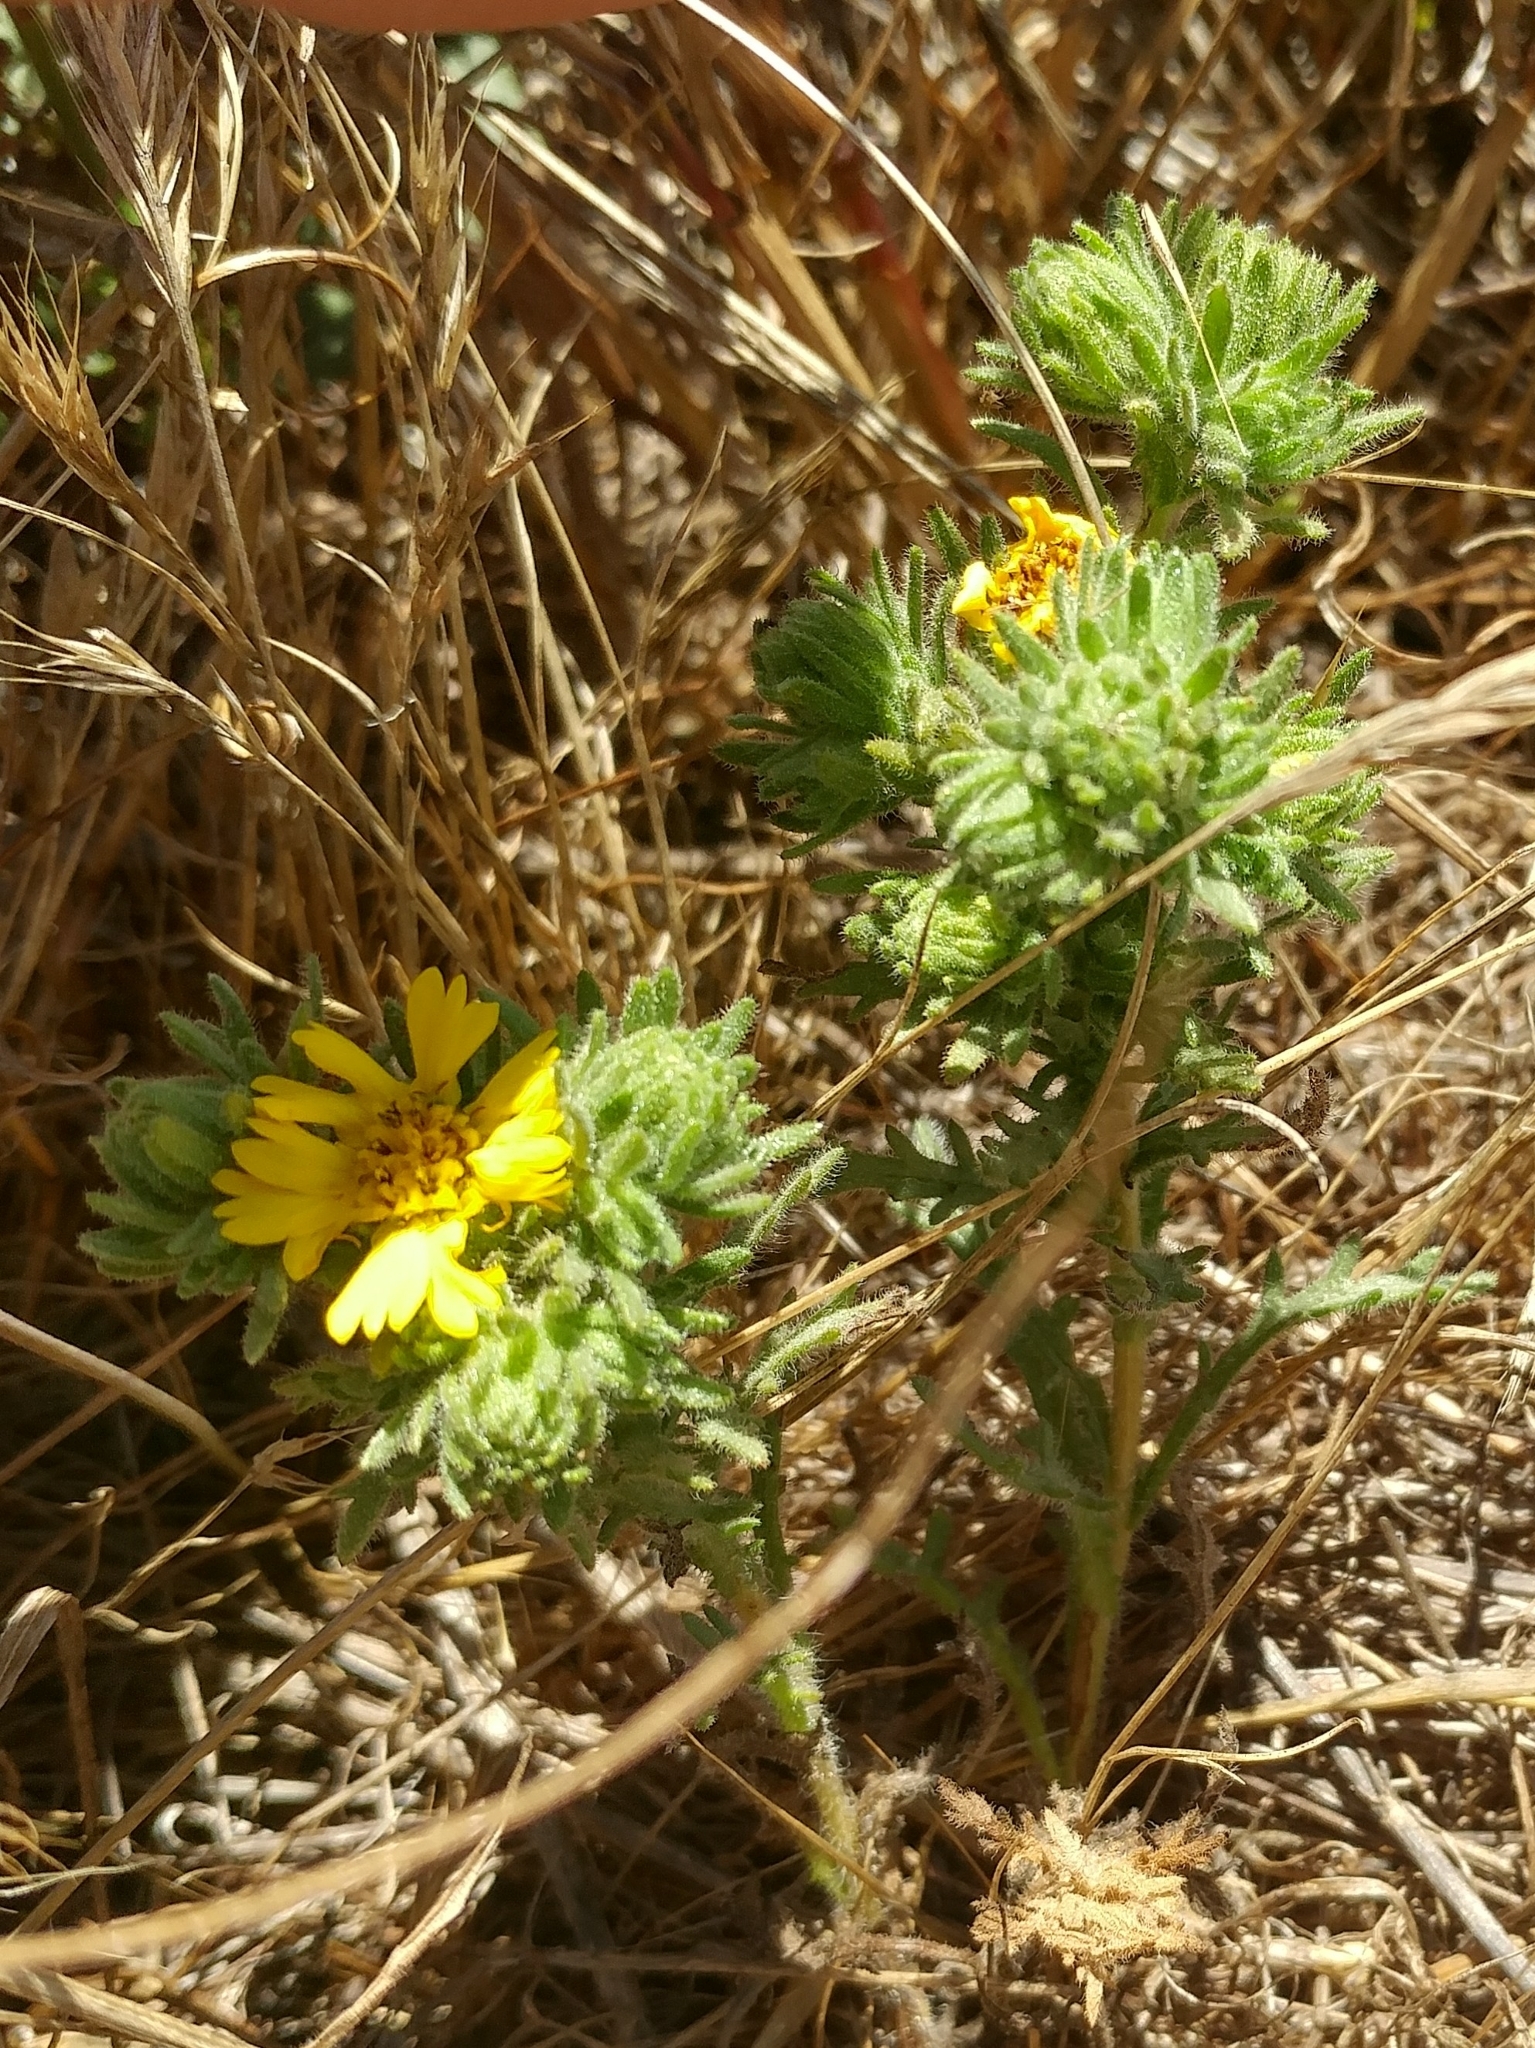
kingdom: Plantae
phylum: Tracheophyta
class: Magnoliopsida
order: Asterales
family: Asteraceae
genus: Deinandra
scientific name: Deinandra increscens
